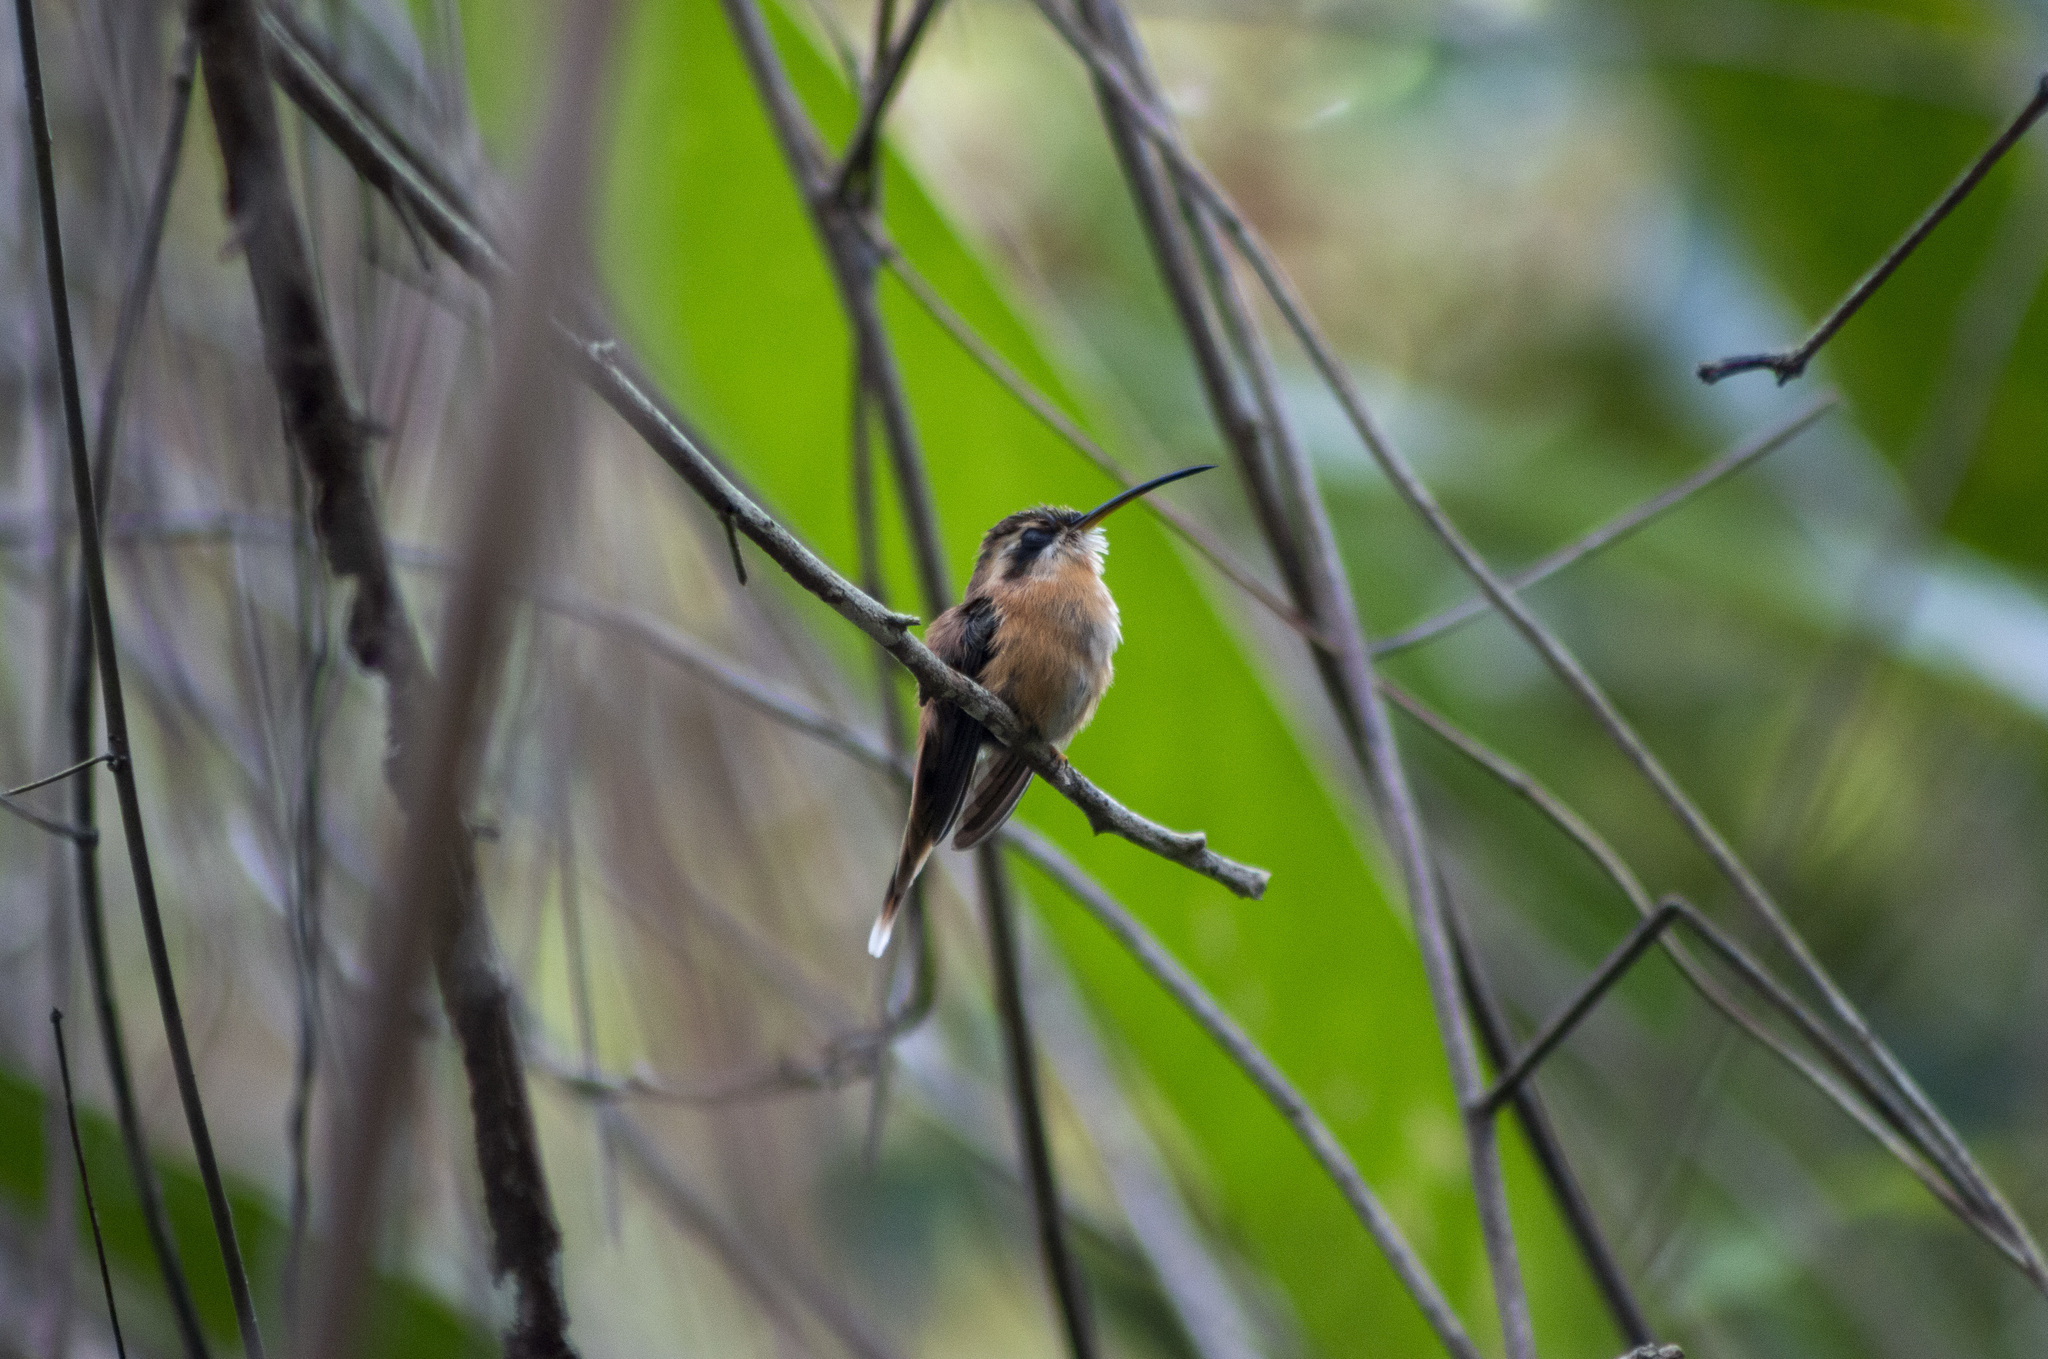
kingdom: Animalia
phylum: Chordata
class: Aves
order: Apodiformes
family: Trochilidae
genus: Phaethornis
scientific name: Phaethornis ruber
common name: Reddish hermit
